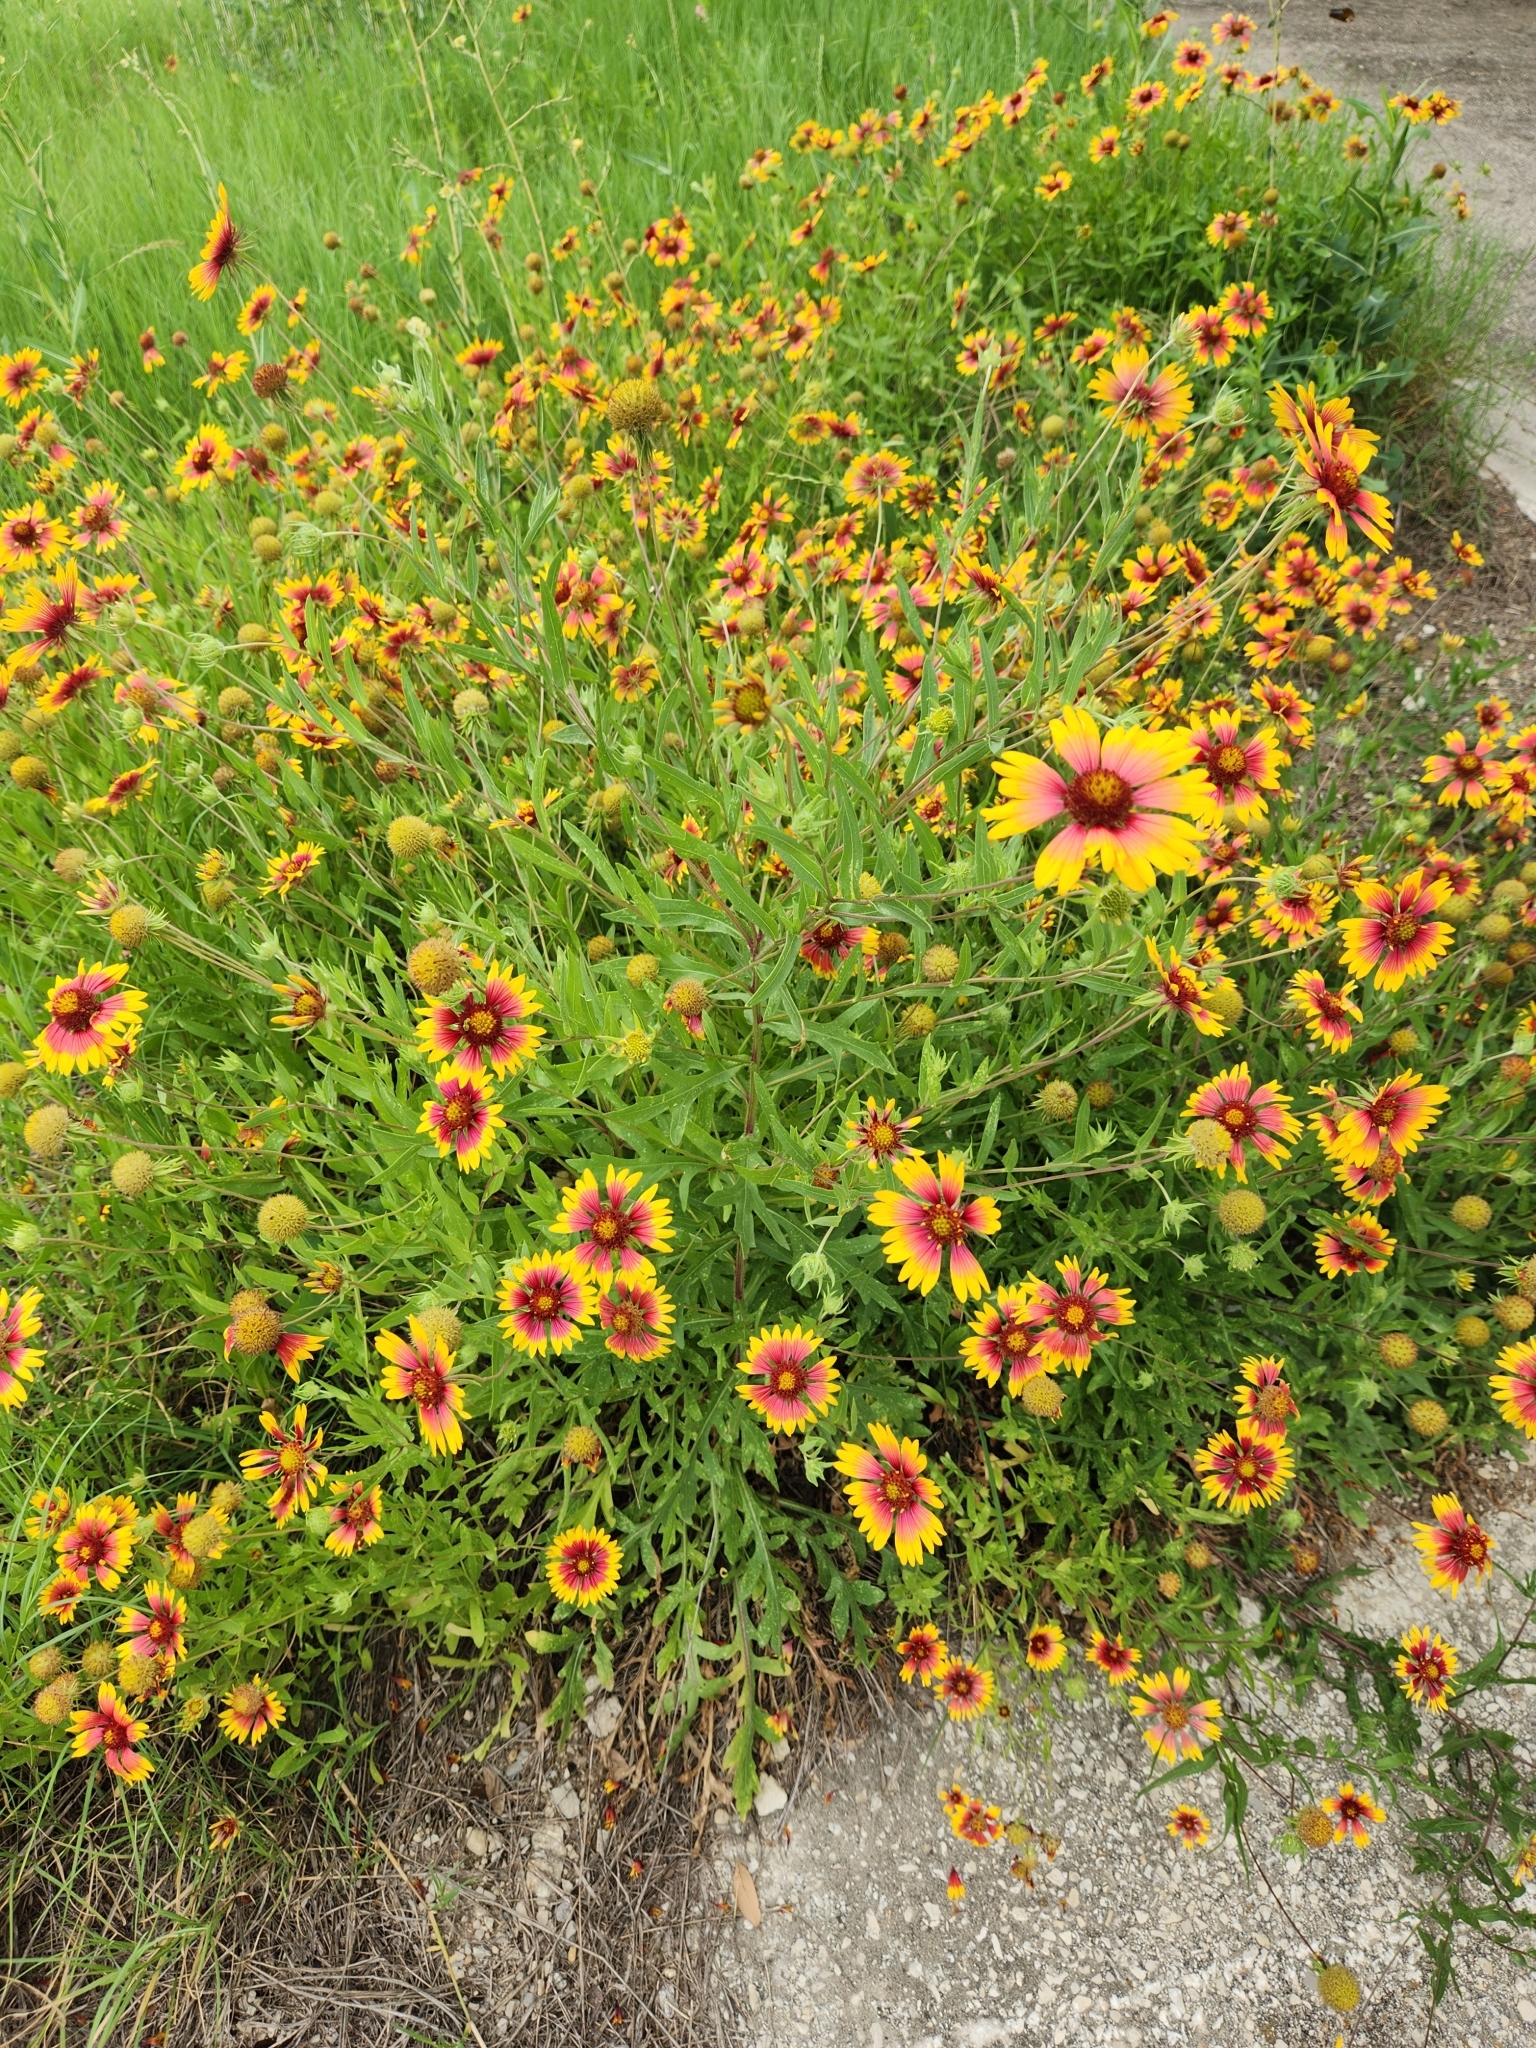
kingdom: Plantae
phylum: Tracheophyta
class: Magnoliopsida
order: Asterales
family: Asteraceae
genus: Gaillardia
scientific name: Gaillardia pulchella
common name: Firewheel
